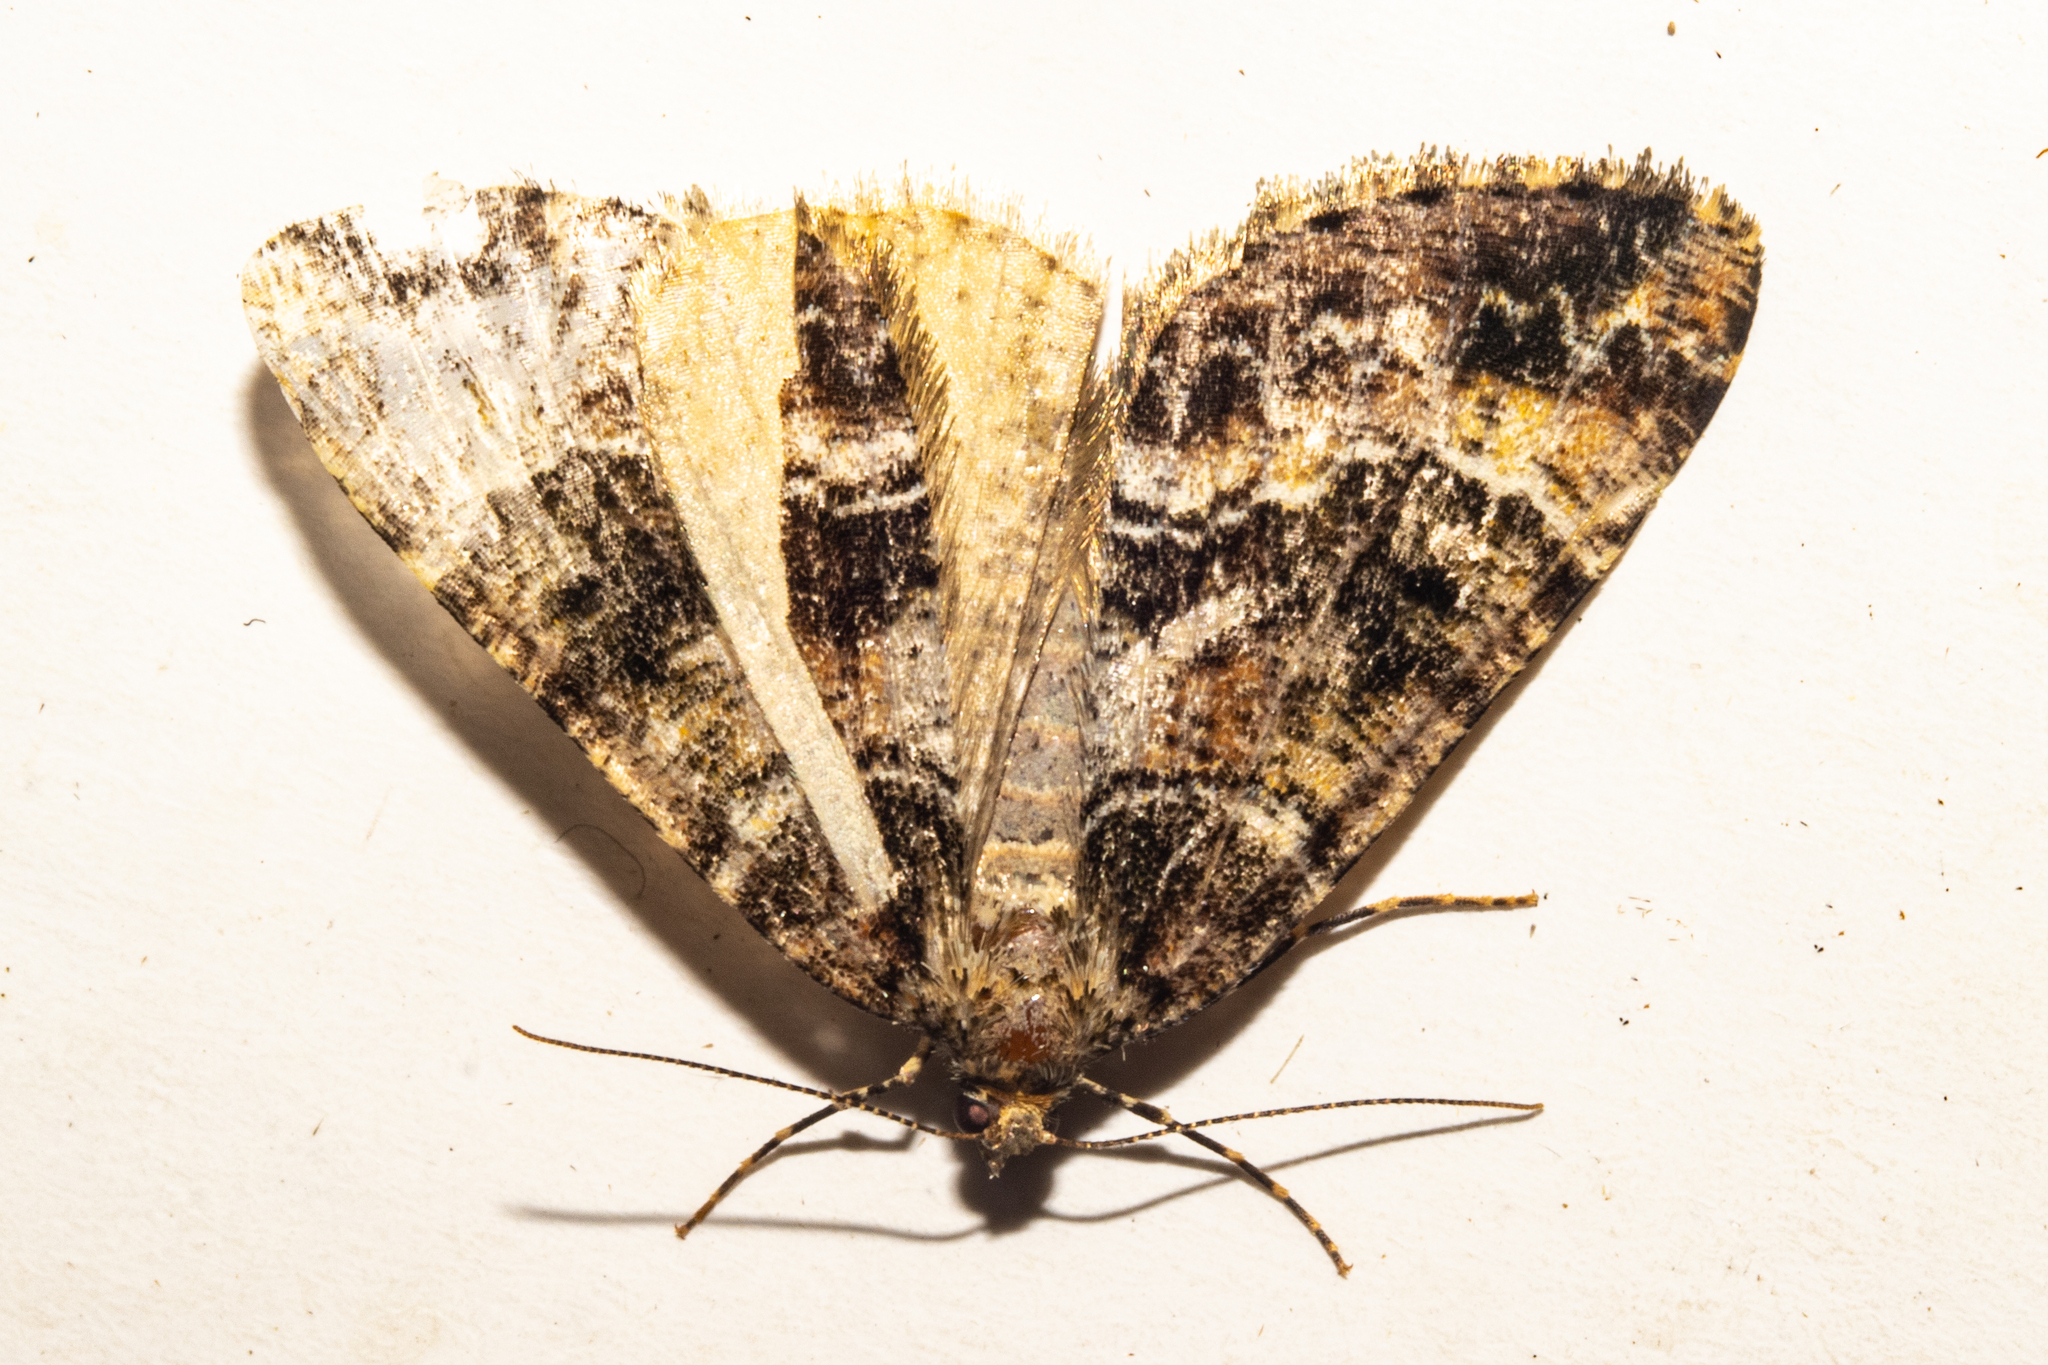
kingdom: Animalia
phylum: Arthropoda
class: Insecta
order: Lepidoptera
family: Geometridae
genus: Pseudocoremia
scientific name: Pseudocoremia productata
